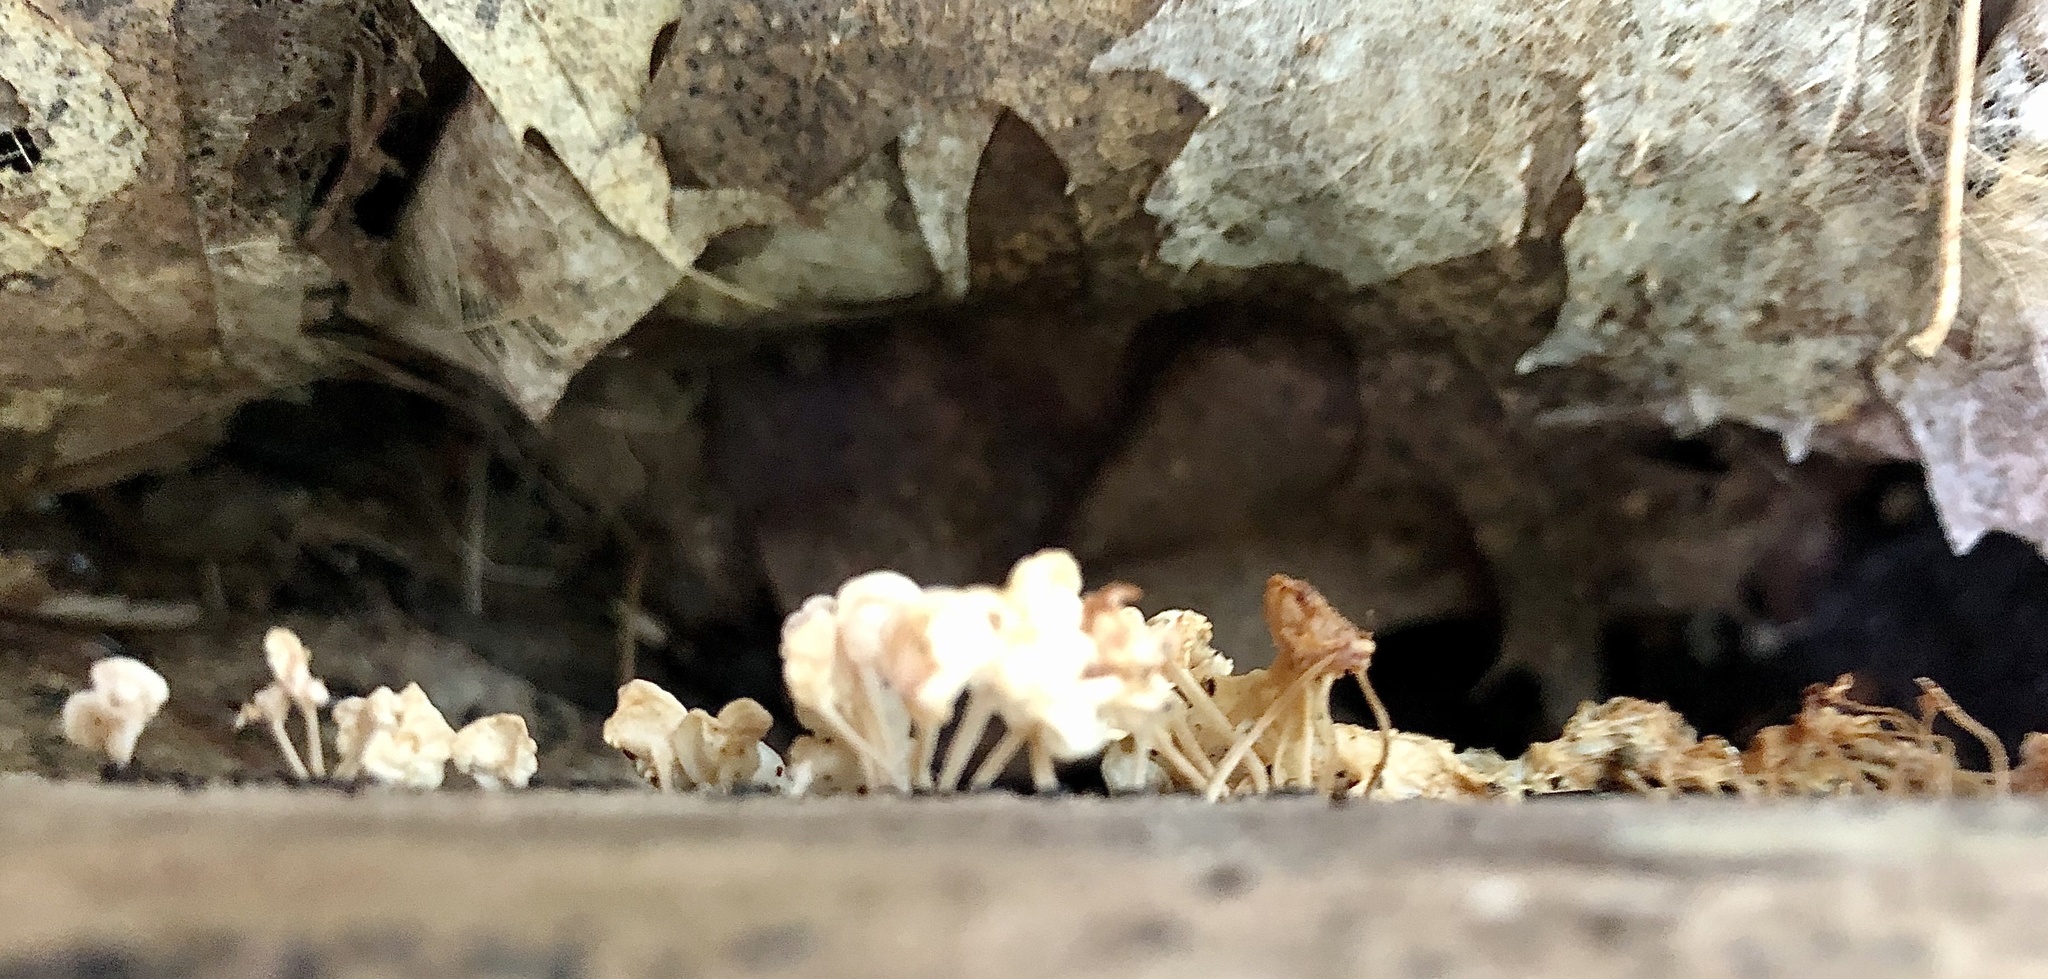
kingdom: Fungi
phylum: Basidiomycota
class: Agaricomycetes
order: Agaricales
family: Physalacriaceae
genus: Physalacria
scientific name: Physalacria inflata
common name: Bladder stalks
